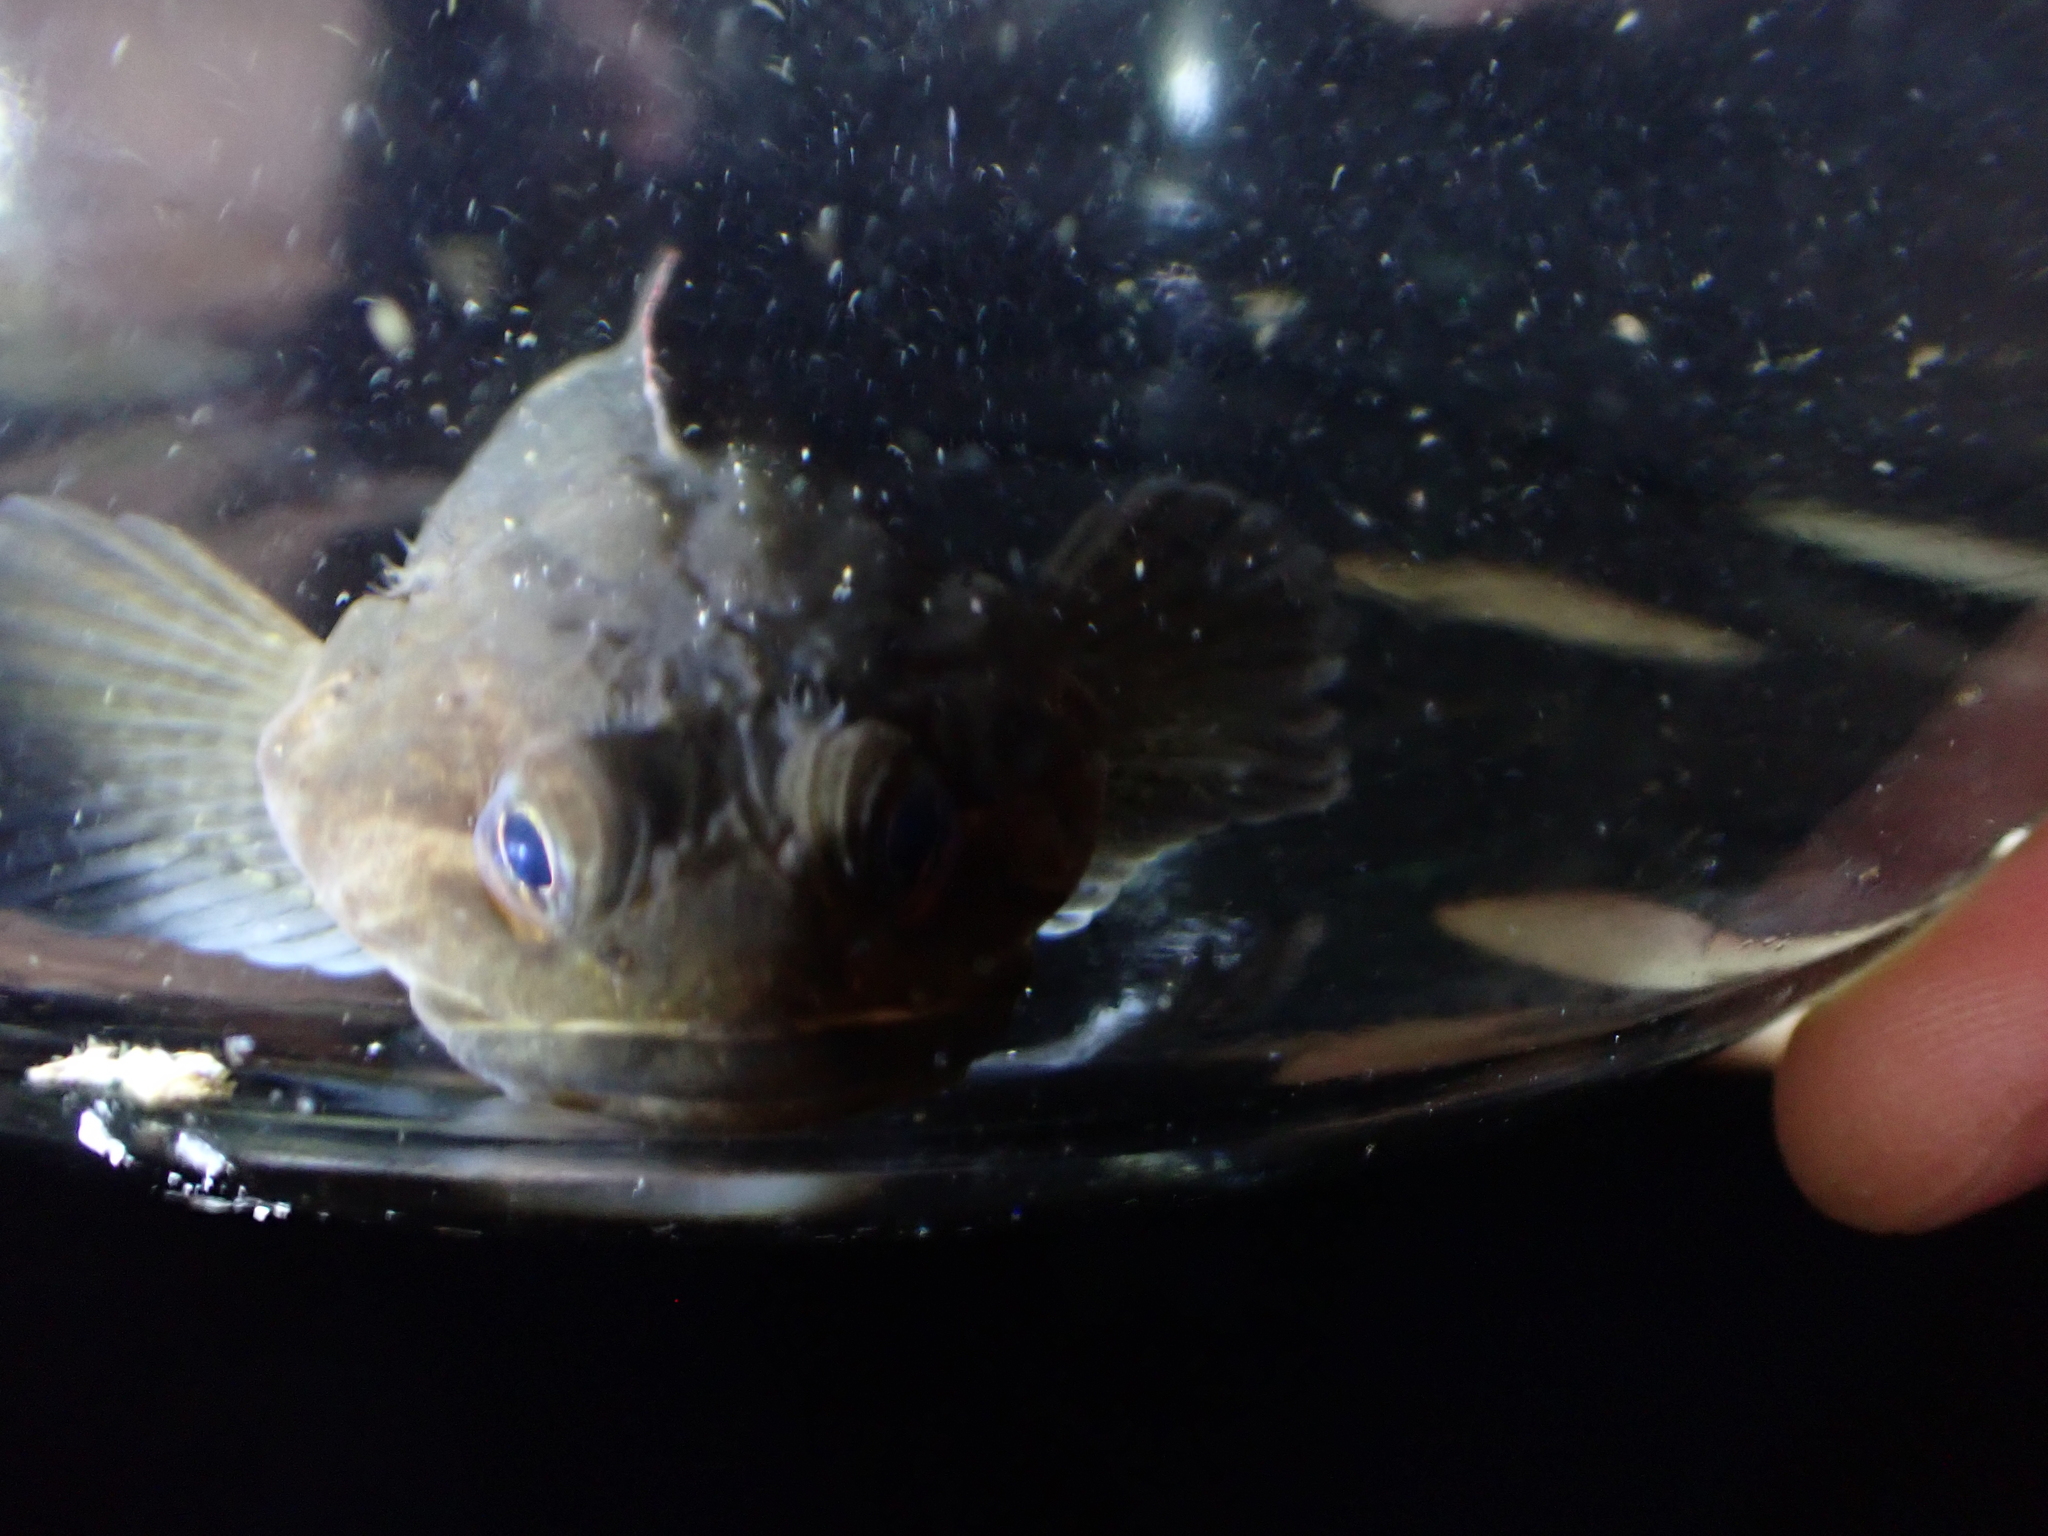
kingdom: Animalia
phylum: Chordata
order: Scorpaeniformes
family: Cottidae
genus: Ascelichthys
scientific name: Ascelichthys rhodorus
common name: Rosylip sculpin
